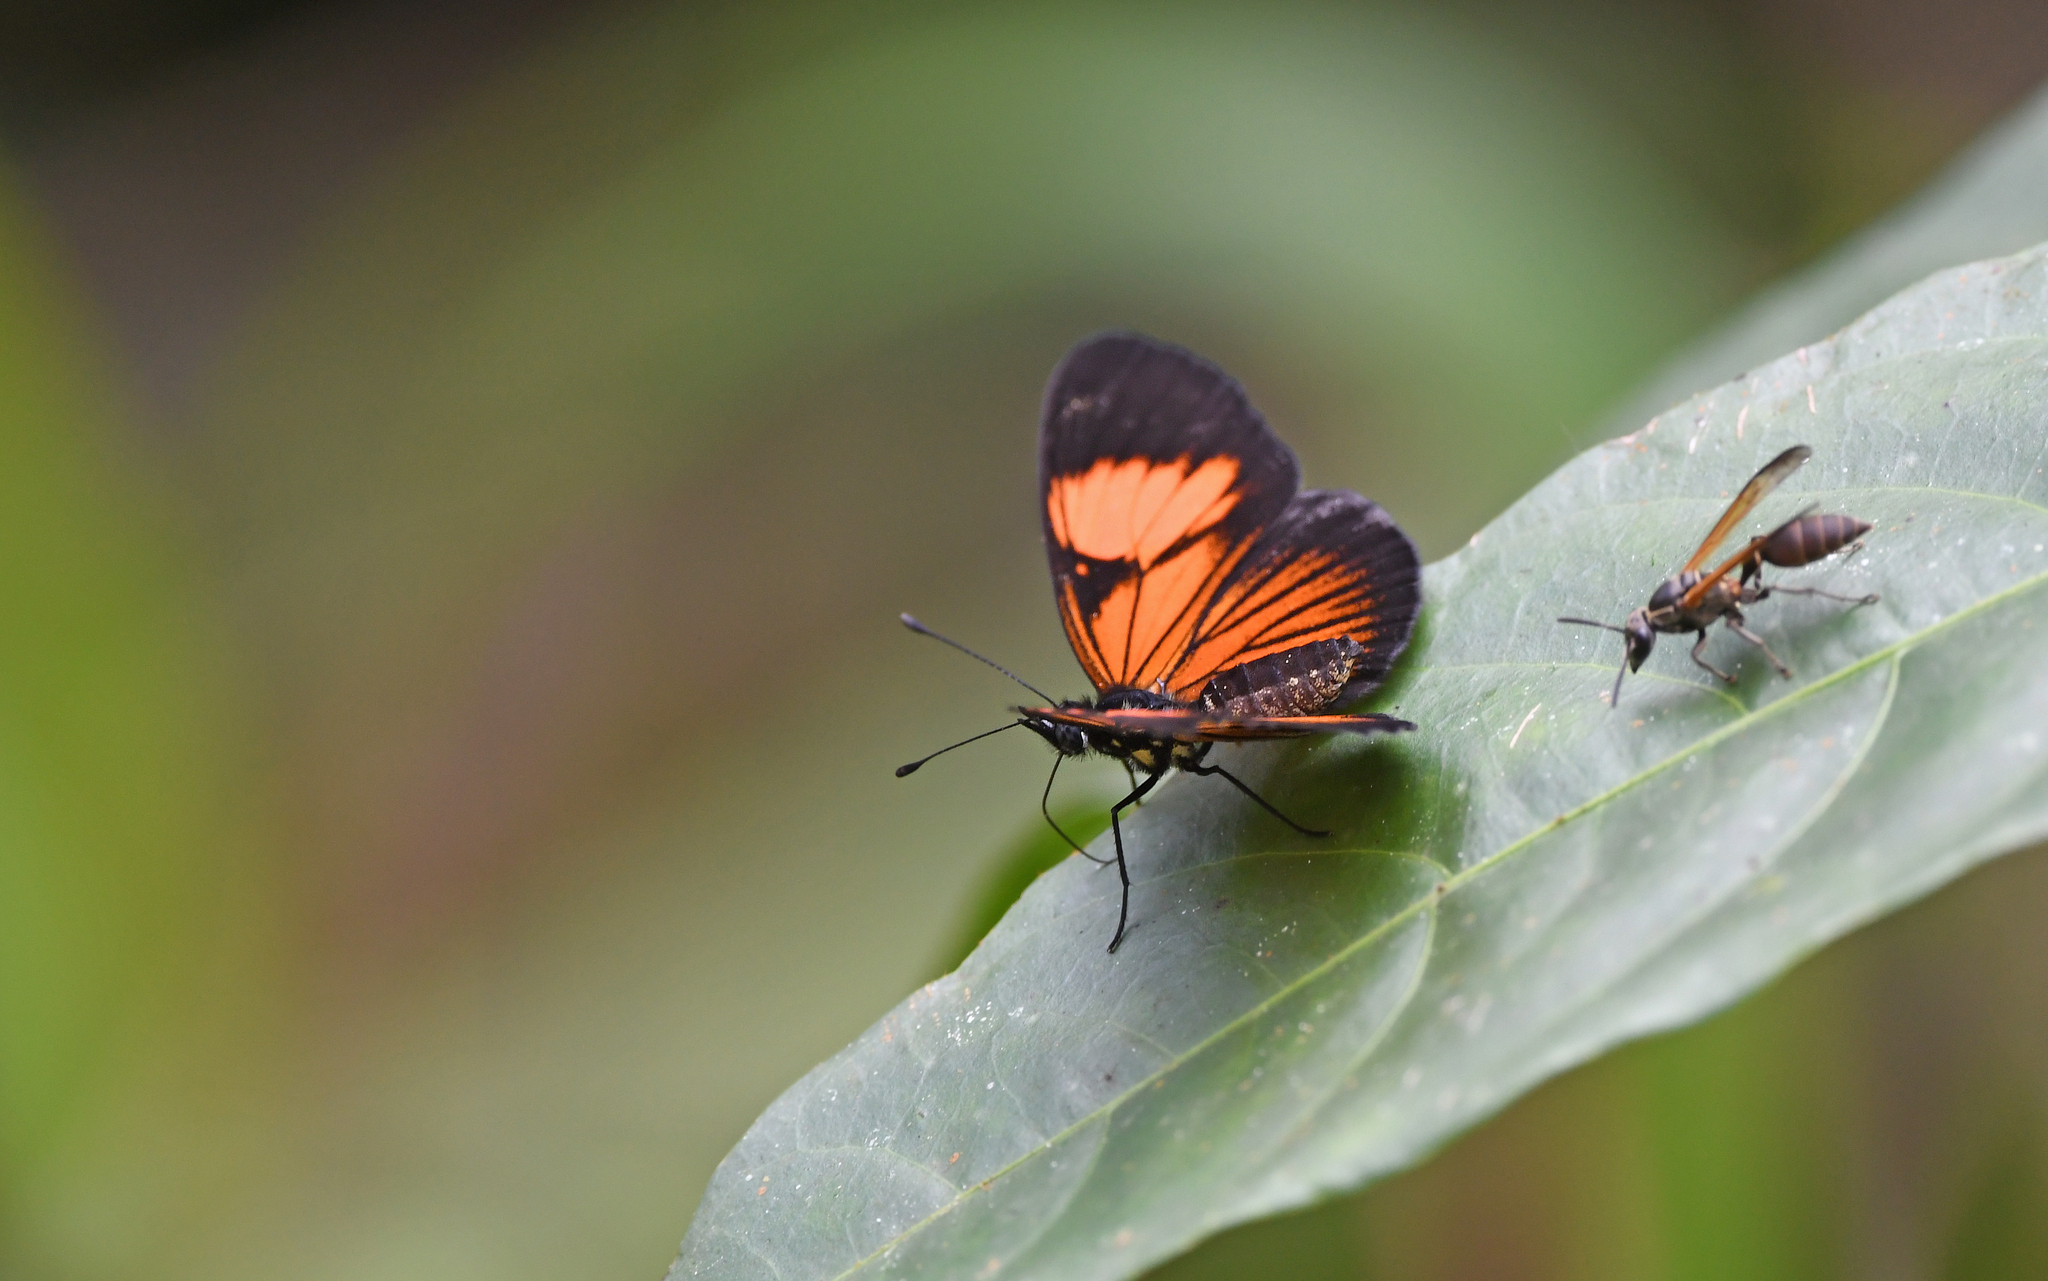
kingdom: Animalia
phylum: Arthropoda
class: Insecta
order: Lepidoptera
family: Nymphalidae
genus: Castilia
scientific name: Castilia perilla
